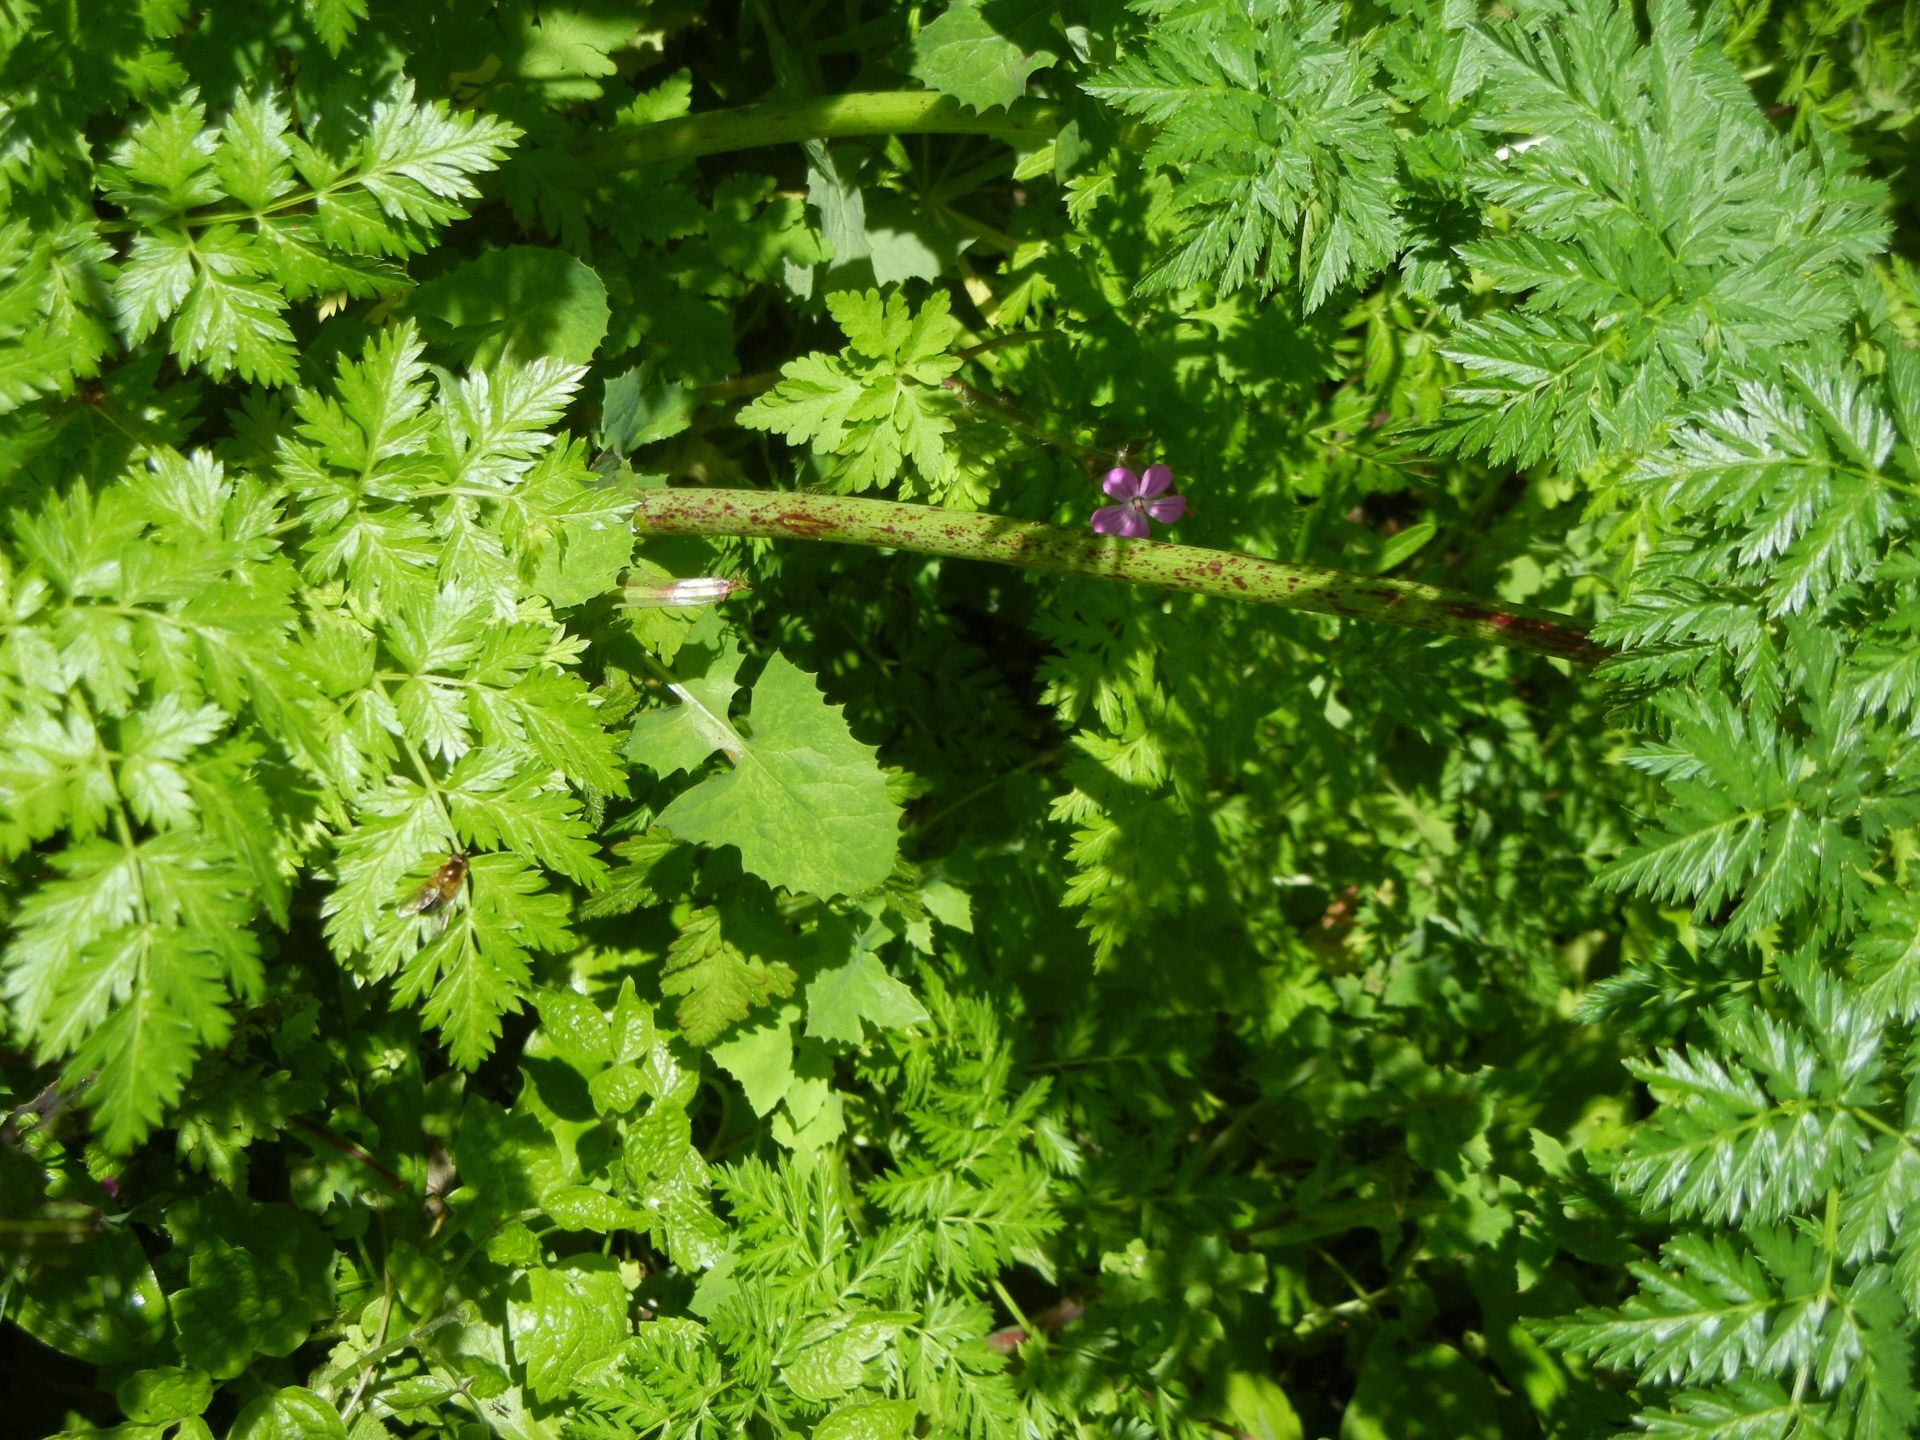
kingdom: Plantae
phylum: Tracheophyta
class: Magnoliopsida
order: Apiales
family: Apiaceae
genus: Conium
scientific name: Conium maculatum
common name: Hemlock
